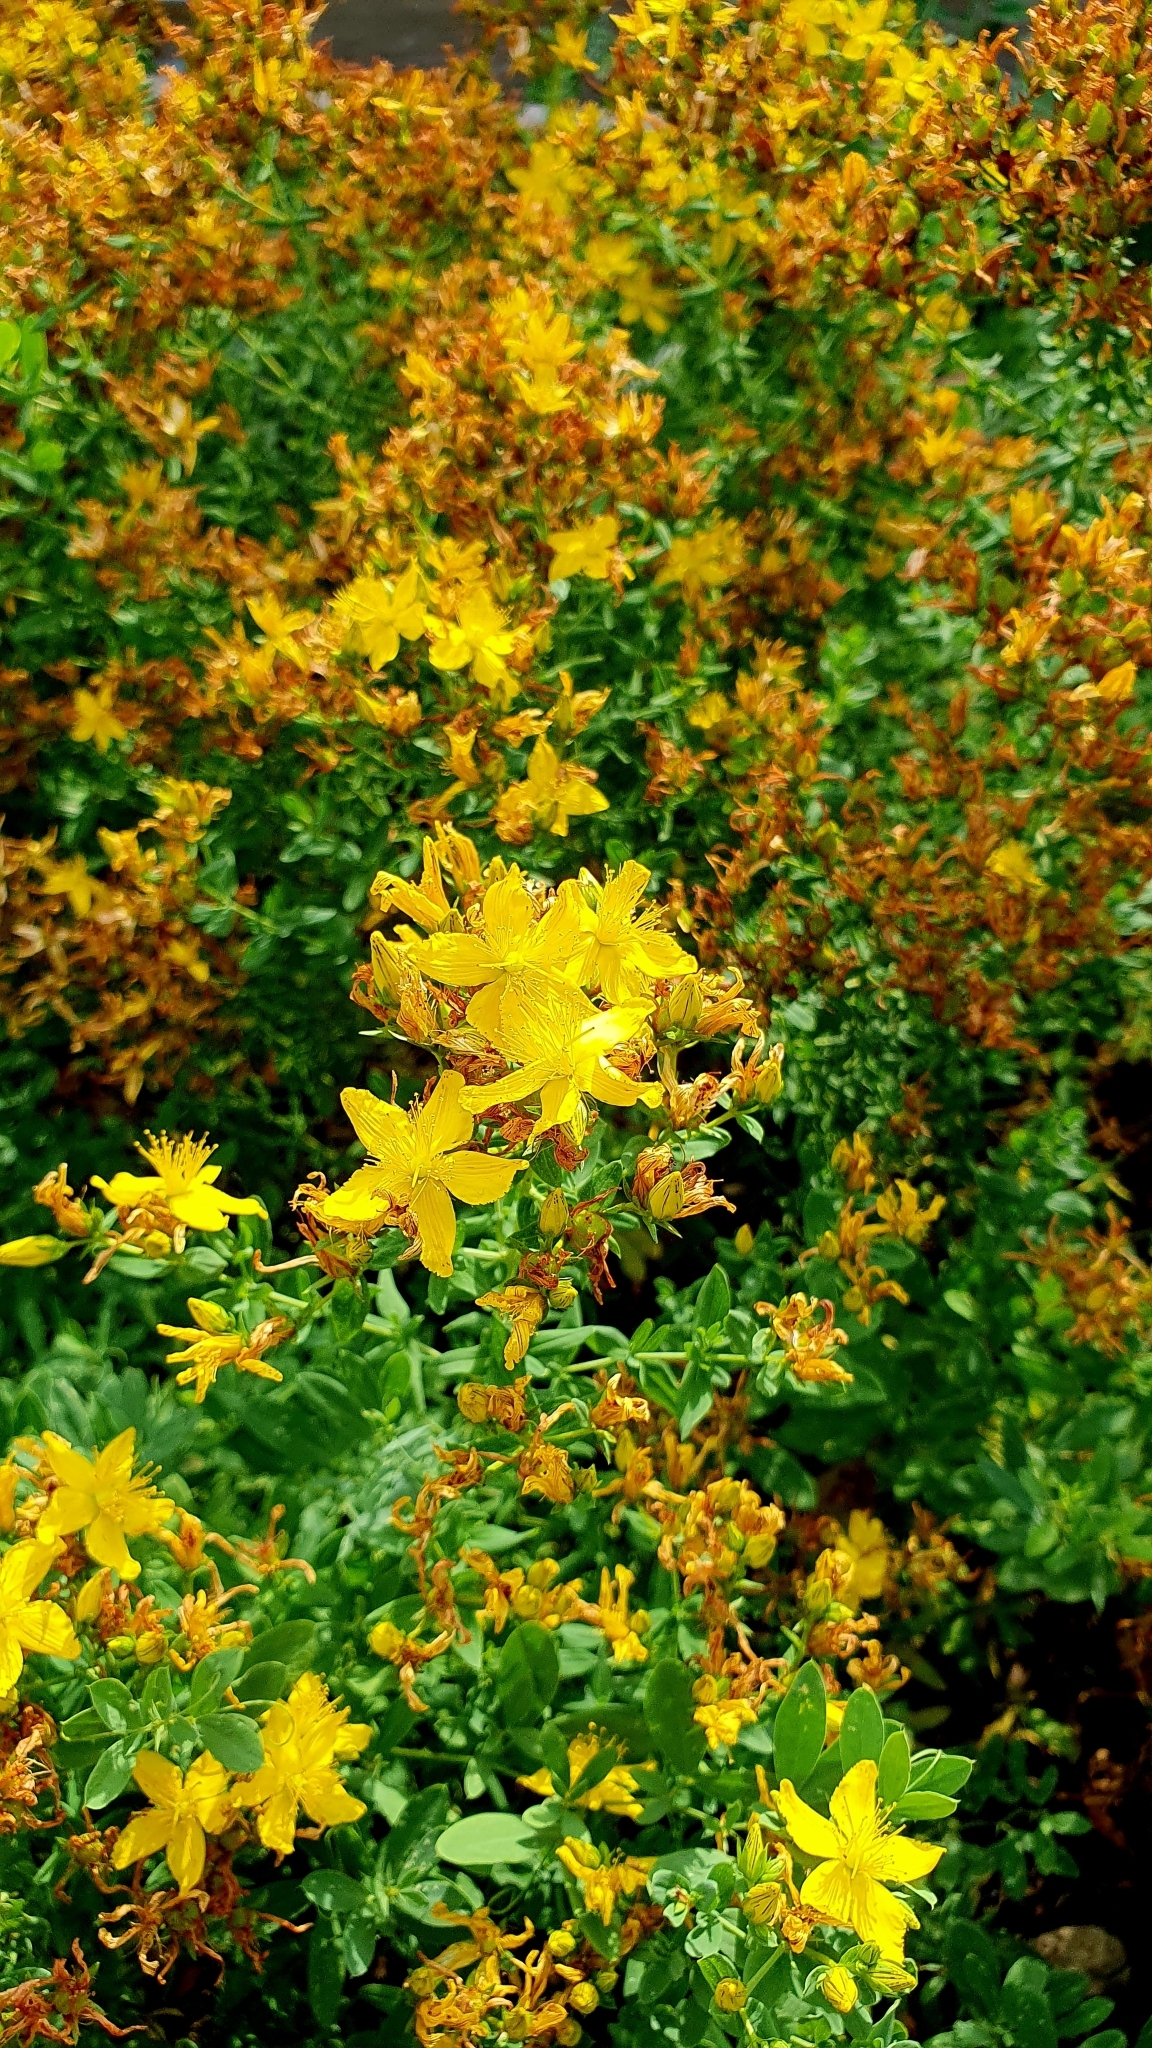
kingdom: Plantae
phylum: Tracheophyta
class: Magnoliopsida
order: Malpighiales
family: Hypericaceae
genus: Hypericum
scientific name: Hypericum perforatum
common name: Common st. johnswort
